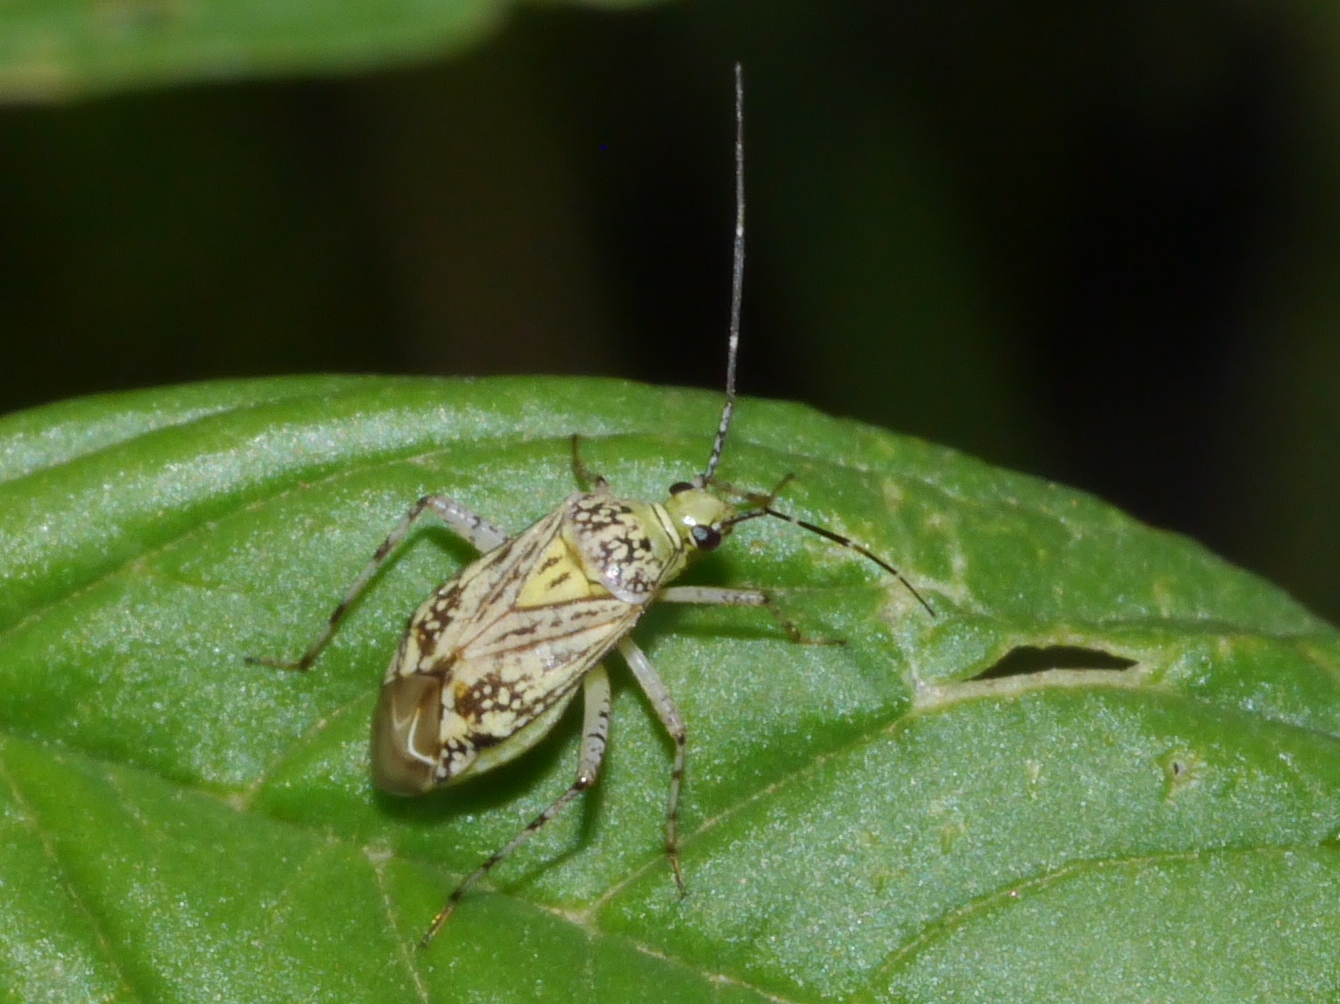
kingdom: Animalia
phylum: Arthropoda
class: Insecta
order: Hemiptera
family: Miridae
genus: Taedia
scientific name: Taedia marmorata
